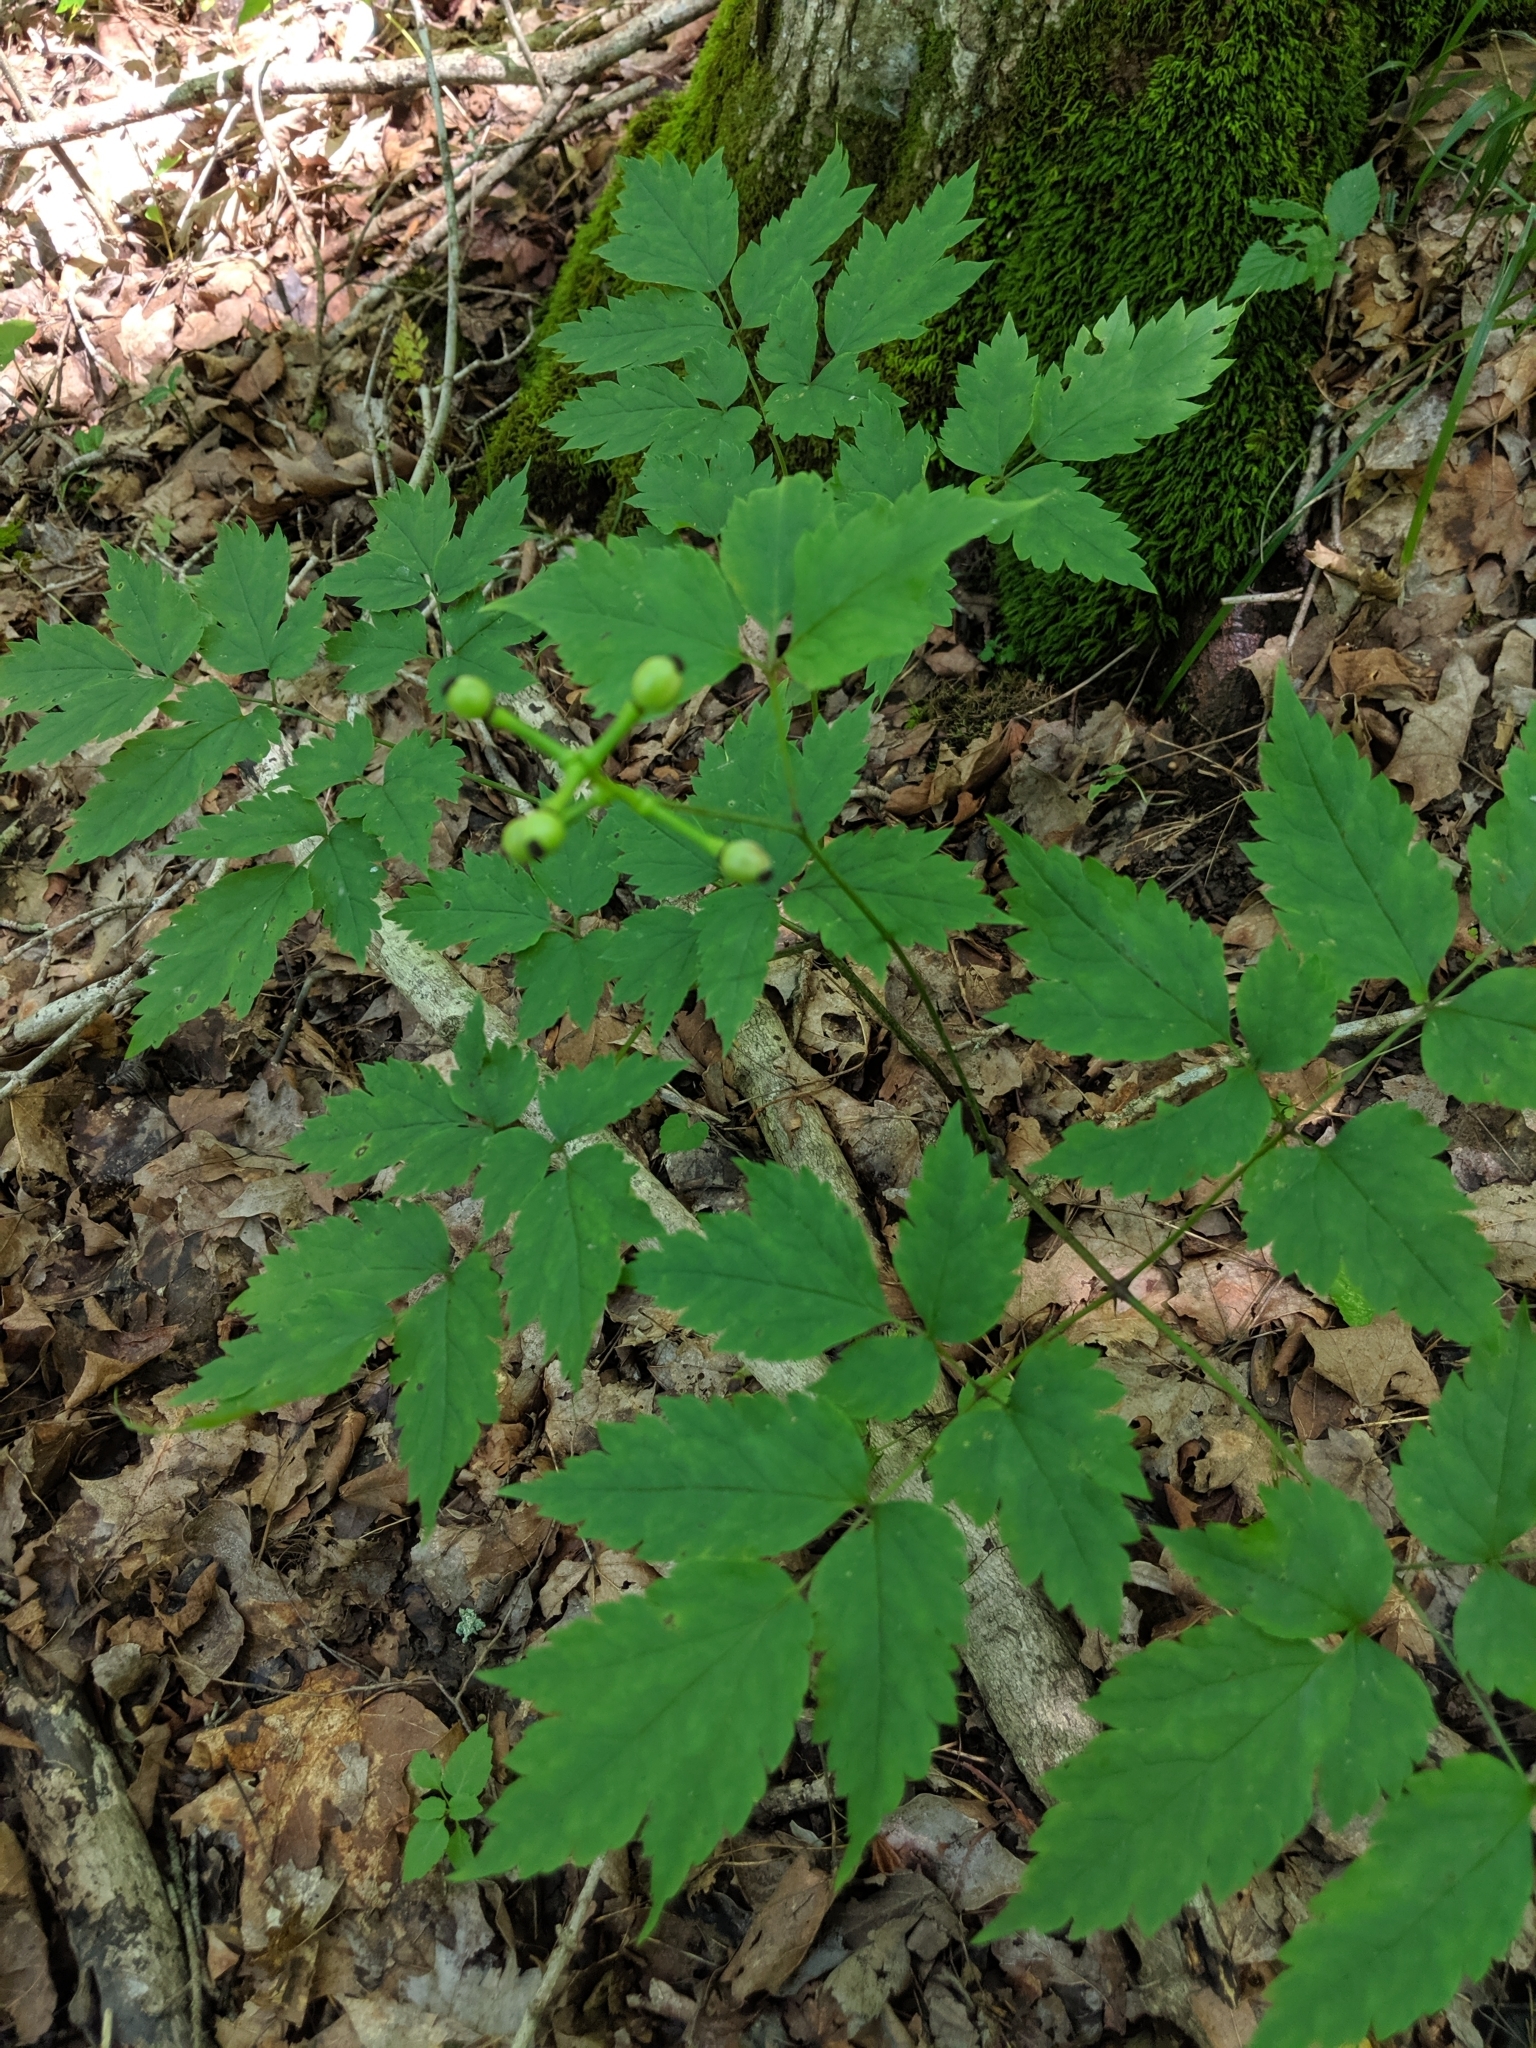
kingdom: Plantae
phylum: Tracheophyta
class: Magnoliopsida
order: Ranunculales
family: Ranunculaceae
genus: Actaea
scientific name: Actaea pachypoda
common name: Doll's-eyes
